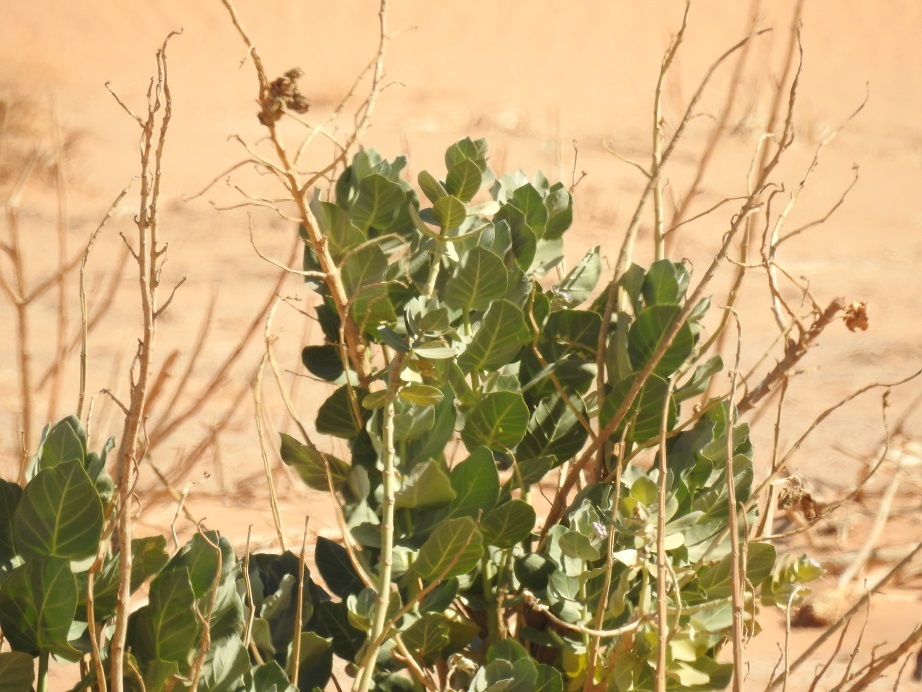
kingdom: Plantae
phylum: Tracheophyta
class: Magnoliopsida
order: Gentianales
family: Apocynaceae
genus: Calotropis
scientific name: Calotropis procera
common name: Roostertree
